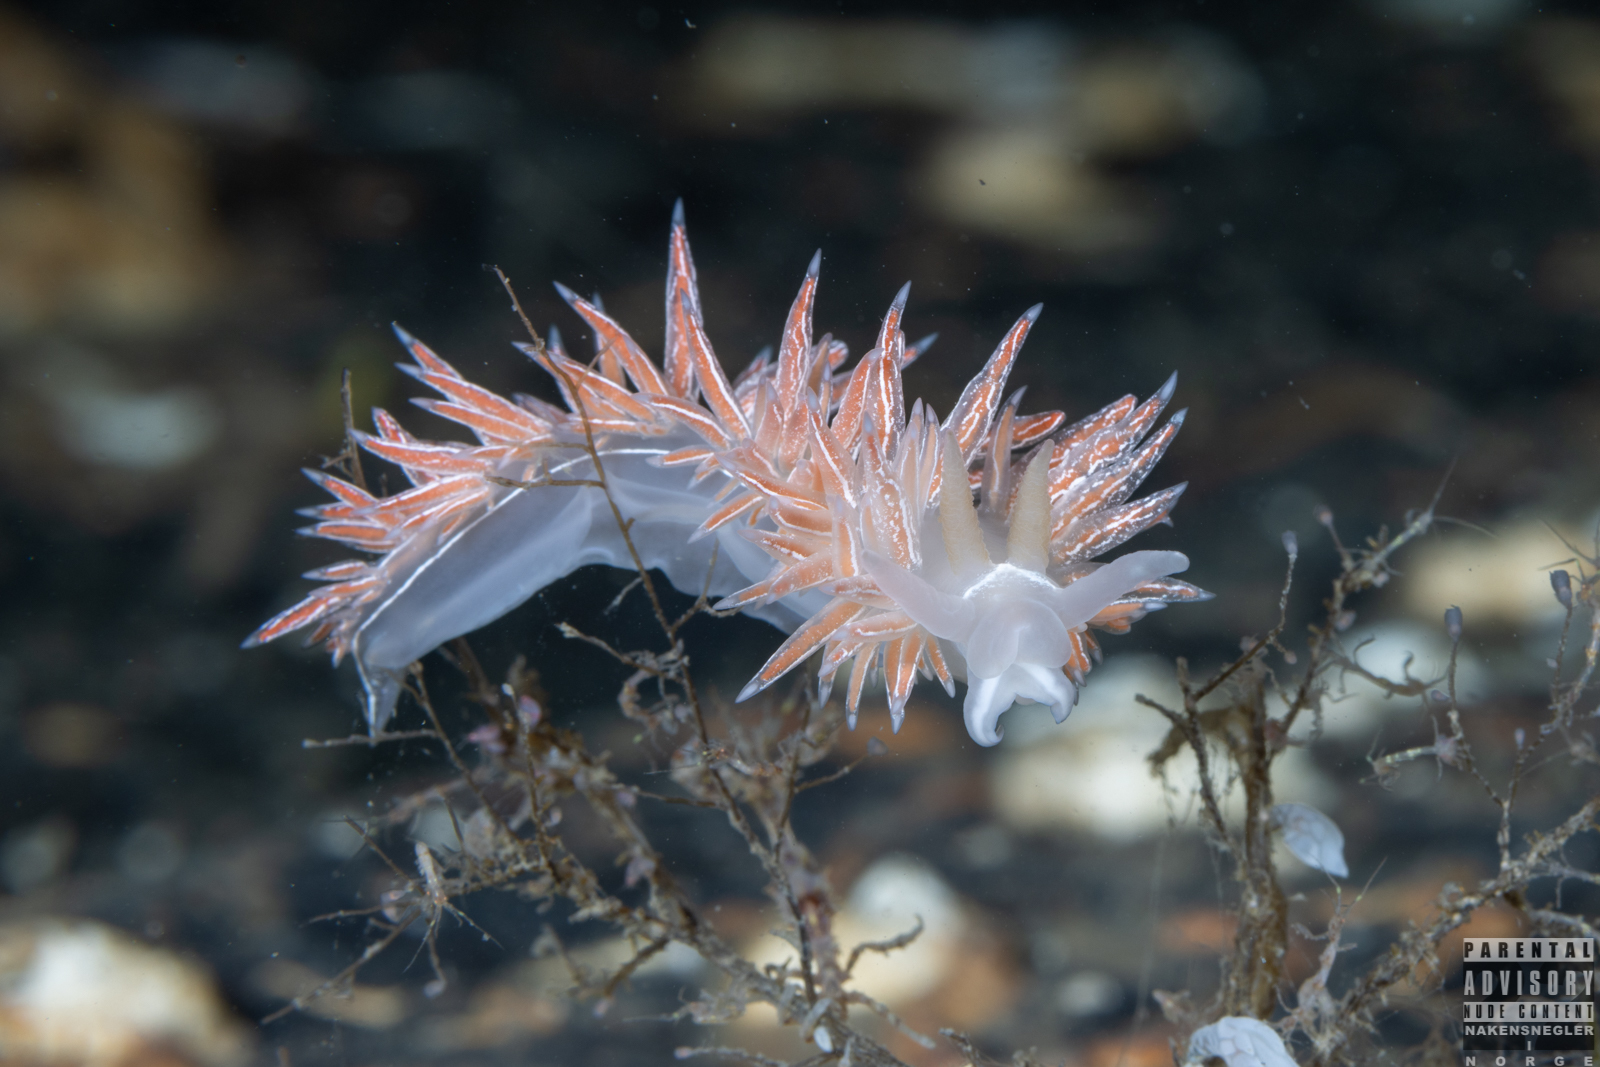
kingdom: Animalia
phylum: Mollusca
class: Gastropoda
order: Nudibranchia
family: Coryphellidae
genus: Coryphella
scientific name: Coryphella chriskaugei
